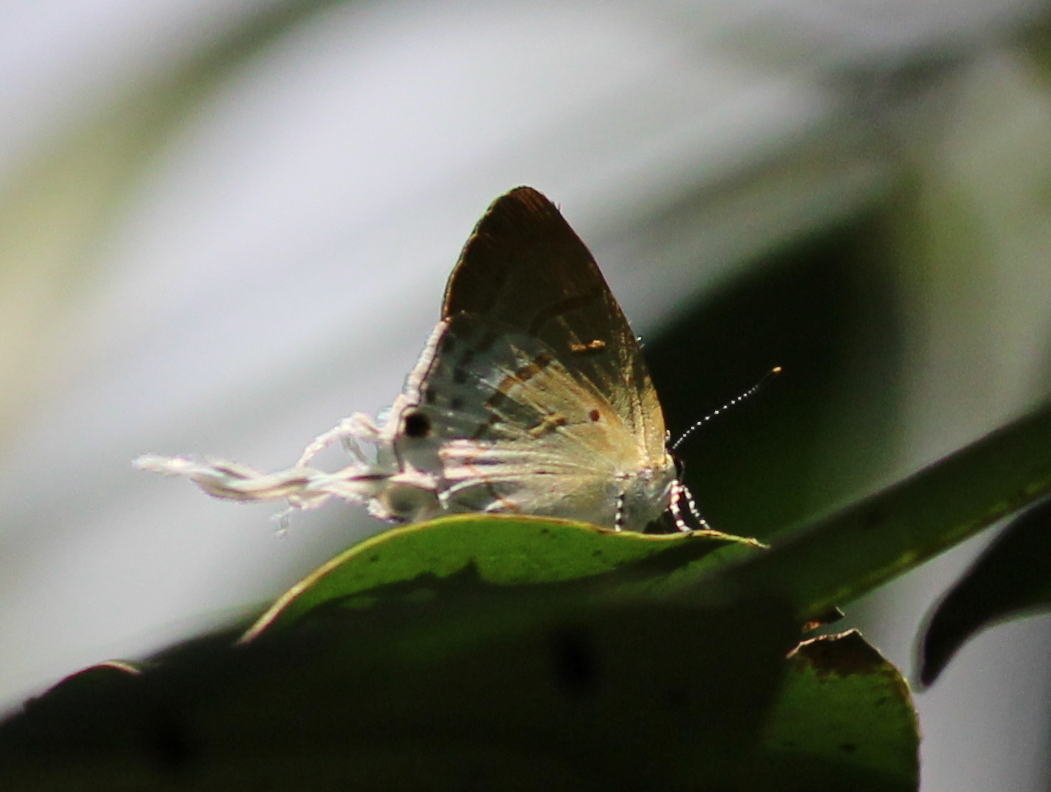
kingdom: Animalia
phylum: Arthropoda
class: Insecta
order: Lepidoptera
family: Lycaenidae
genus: Zeltus
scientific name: Zeltus amasa
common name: Fluffy tit
